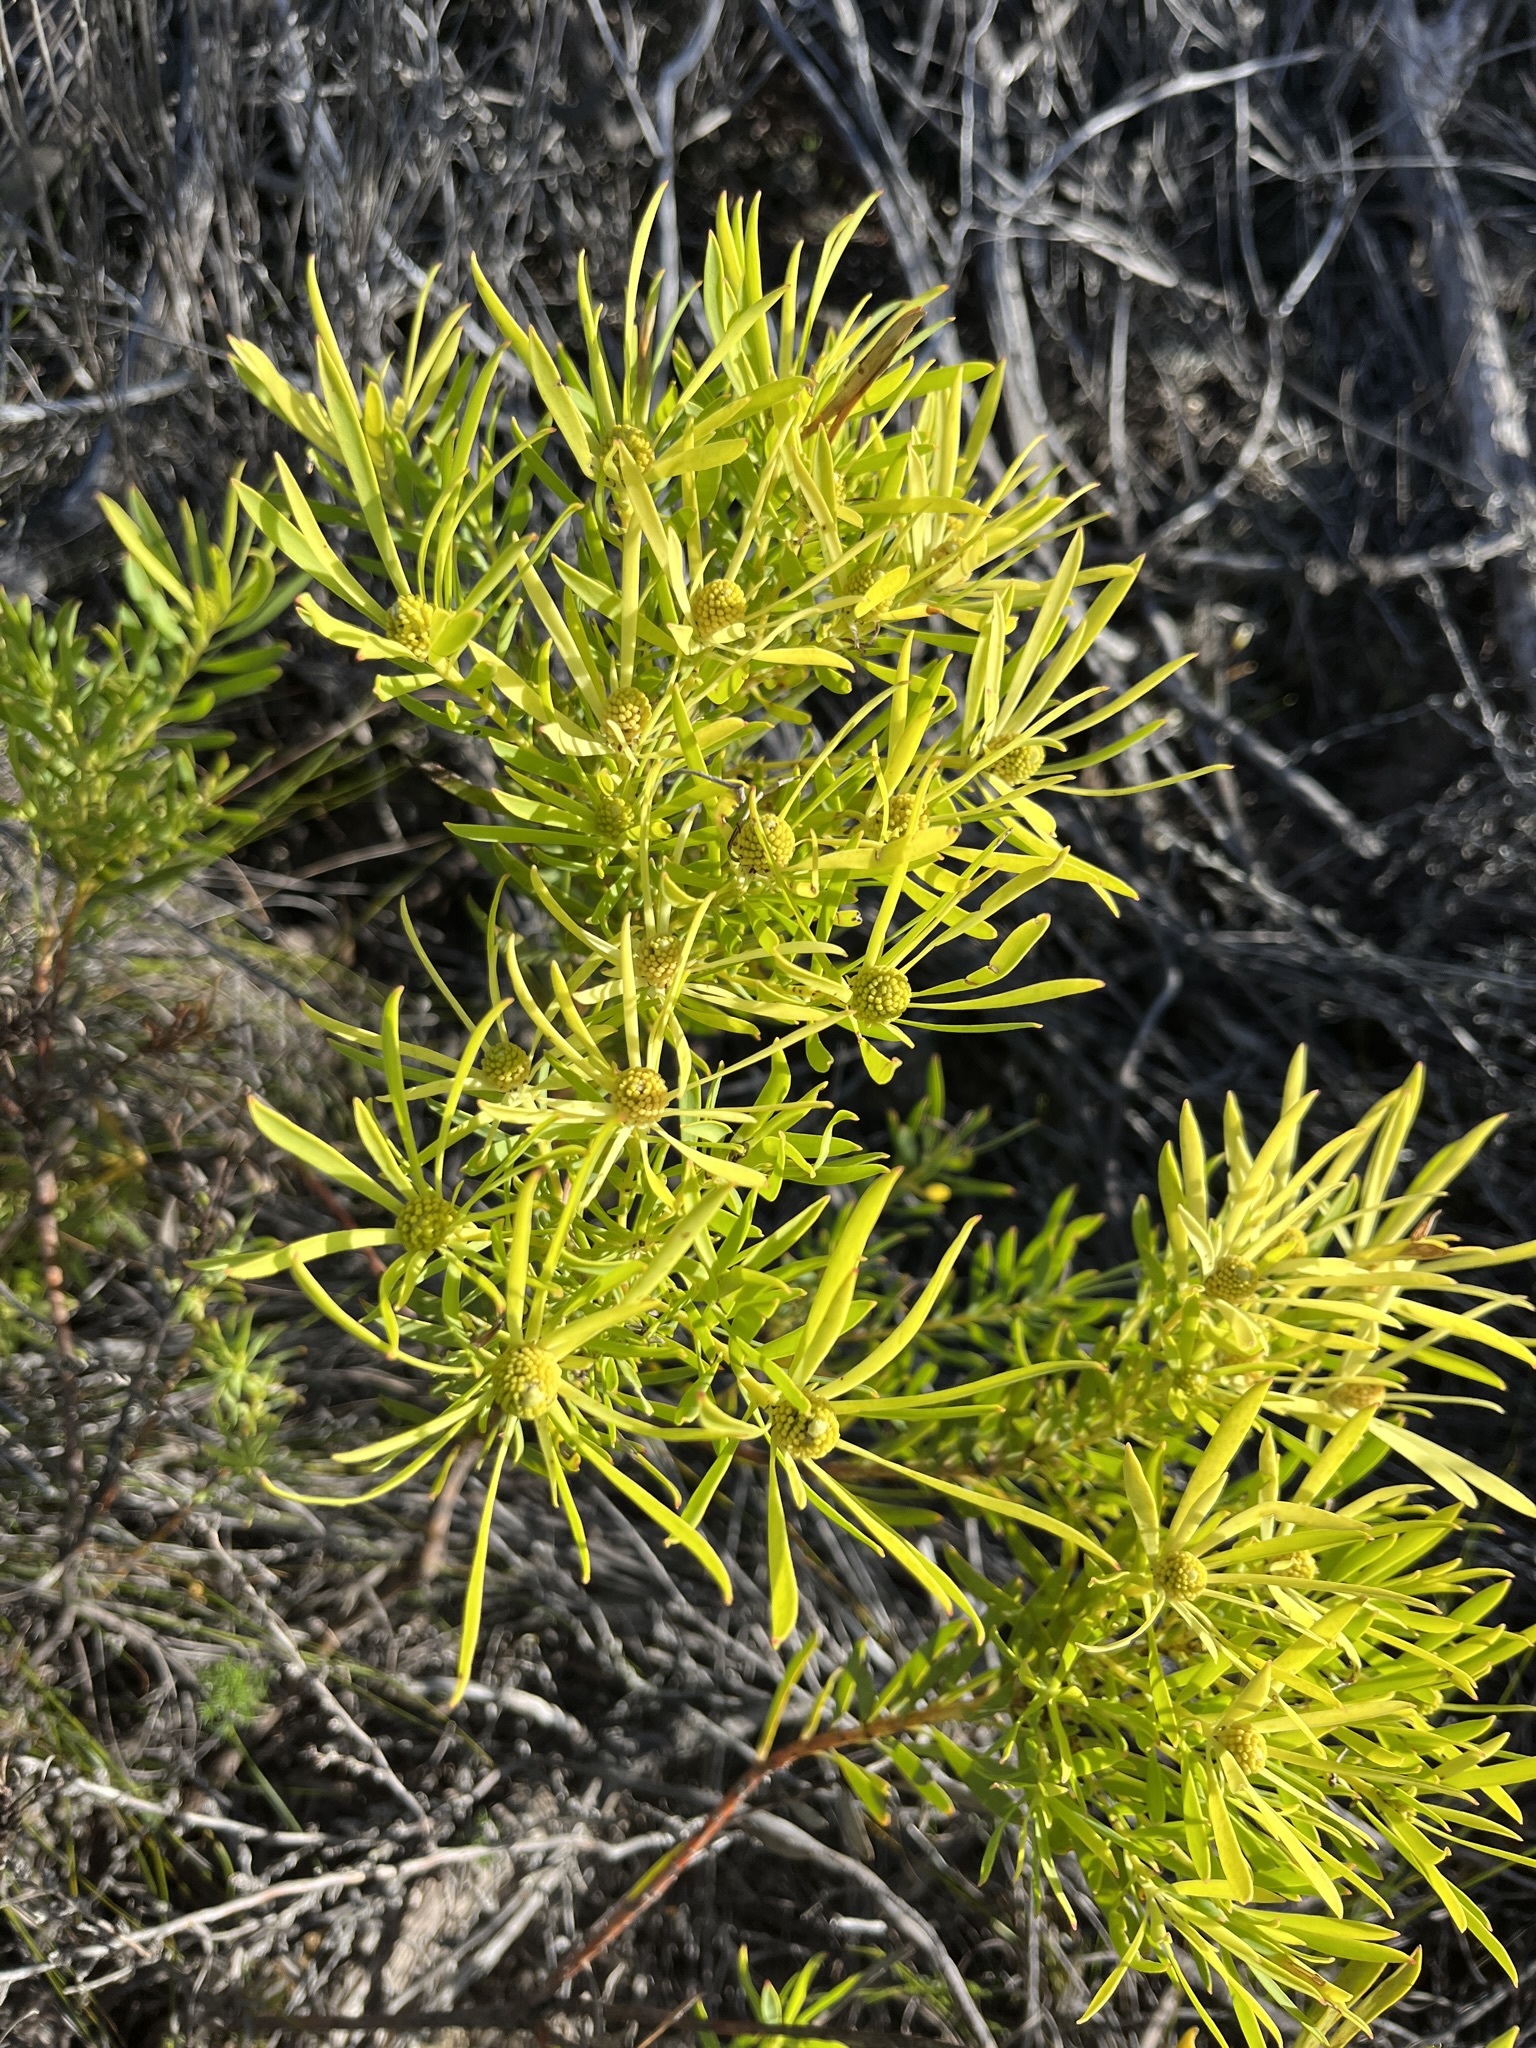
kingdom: Plantae
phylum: Tracheophyta
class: Magnoliopsida
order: Proteales
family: Proteaceae
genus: Leucadendron
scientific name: Leucadendron salignum
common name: Common sunshine conebush
